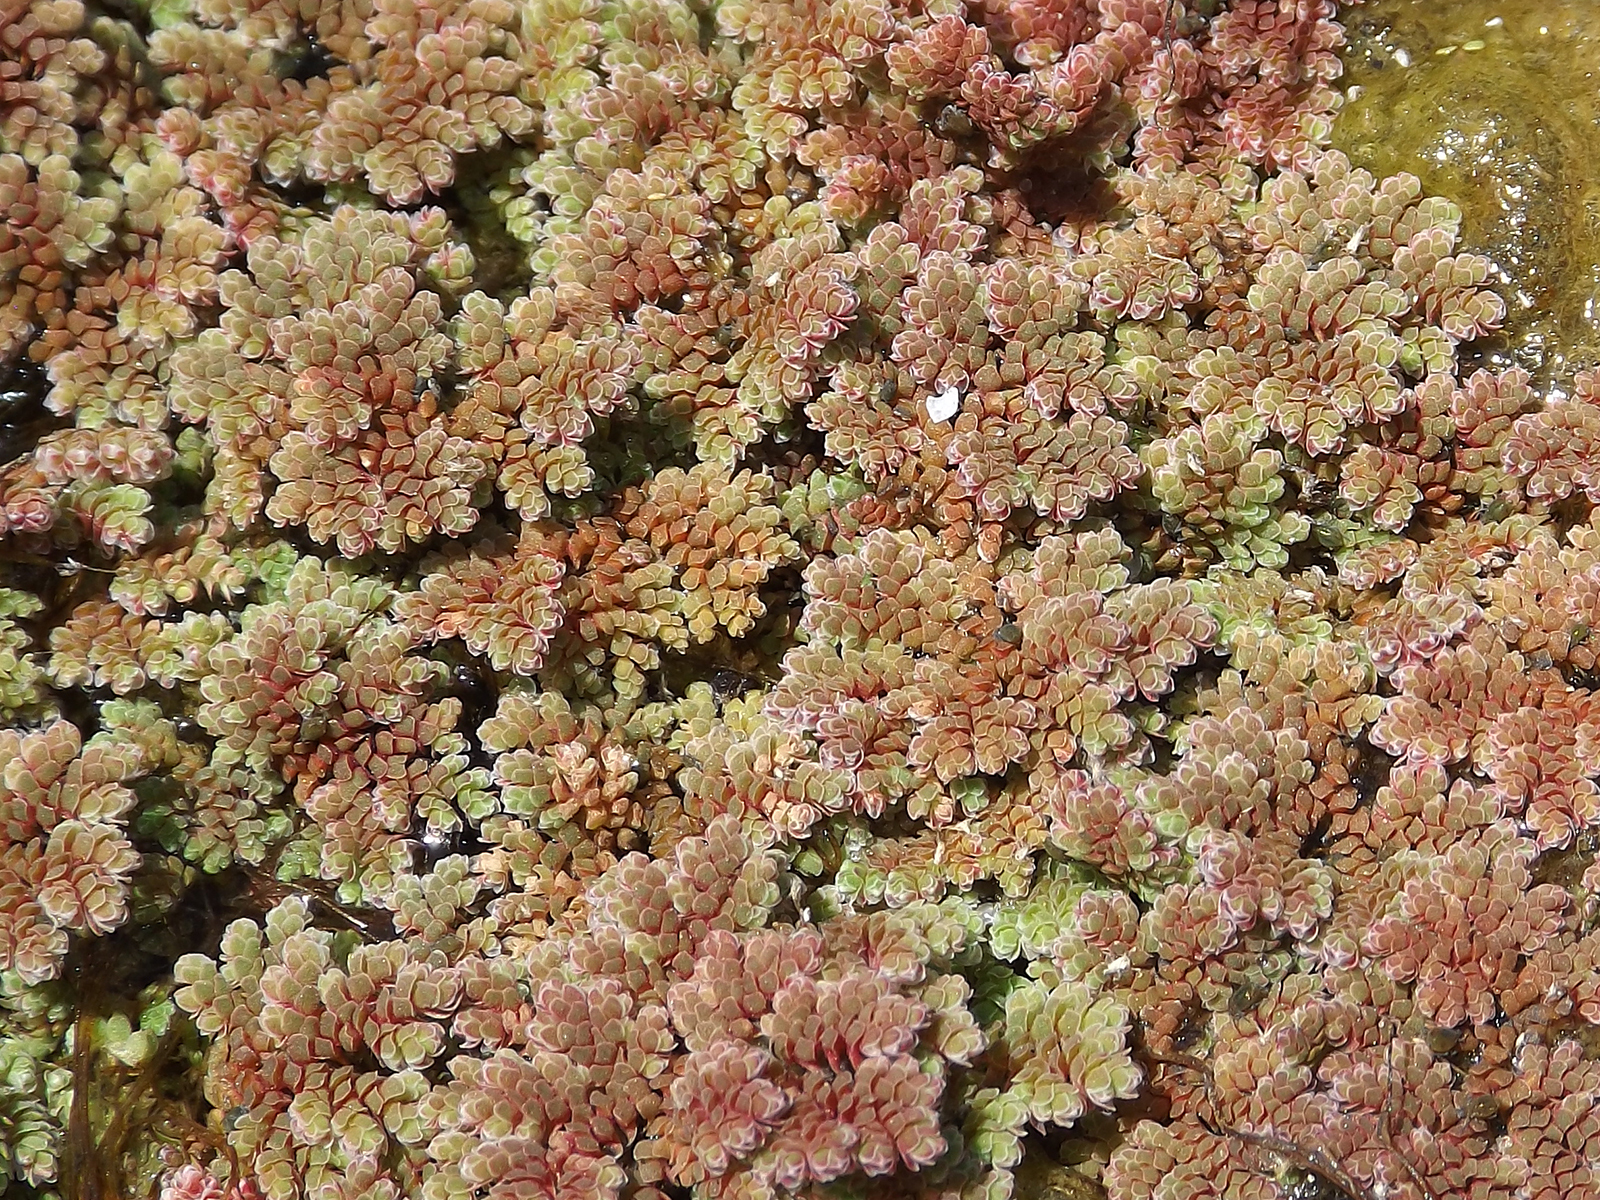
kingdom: Plantae
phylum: Tracheophyta
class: Polypodiopsida
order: Salviniales
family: Salviniaceae
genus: Azolla
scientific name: Azolla filiculoides
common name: Water fern
